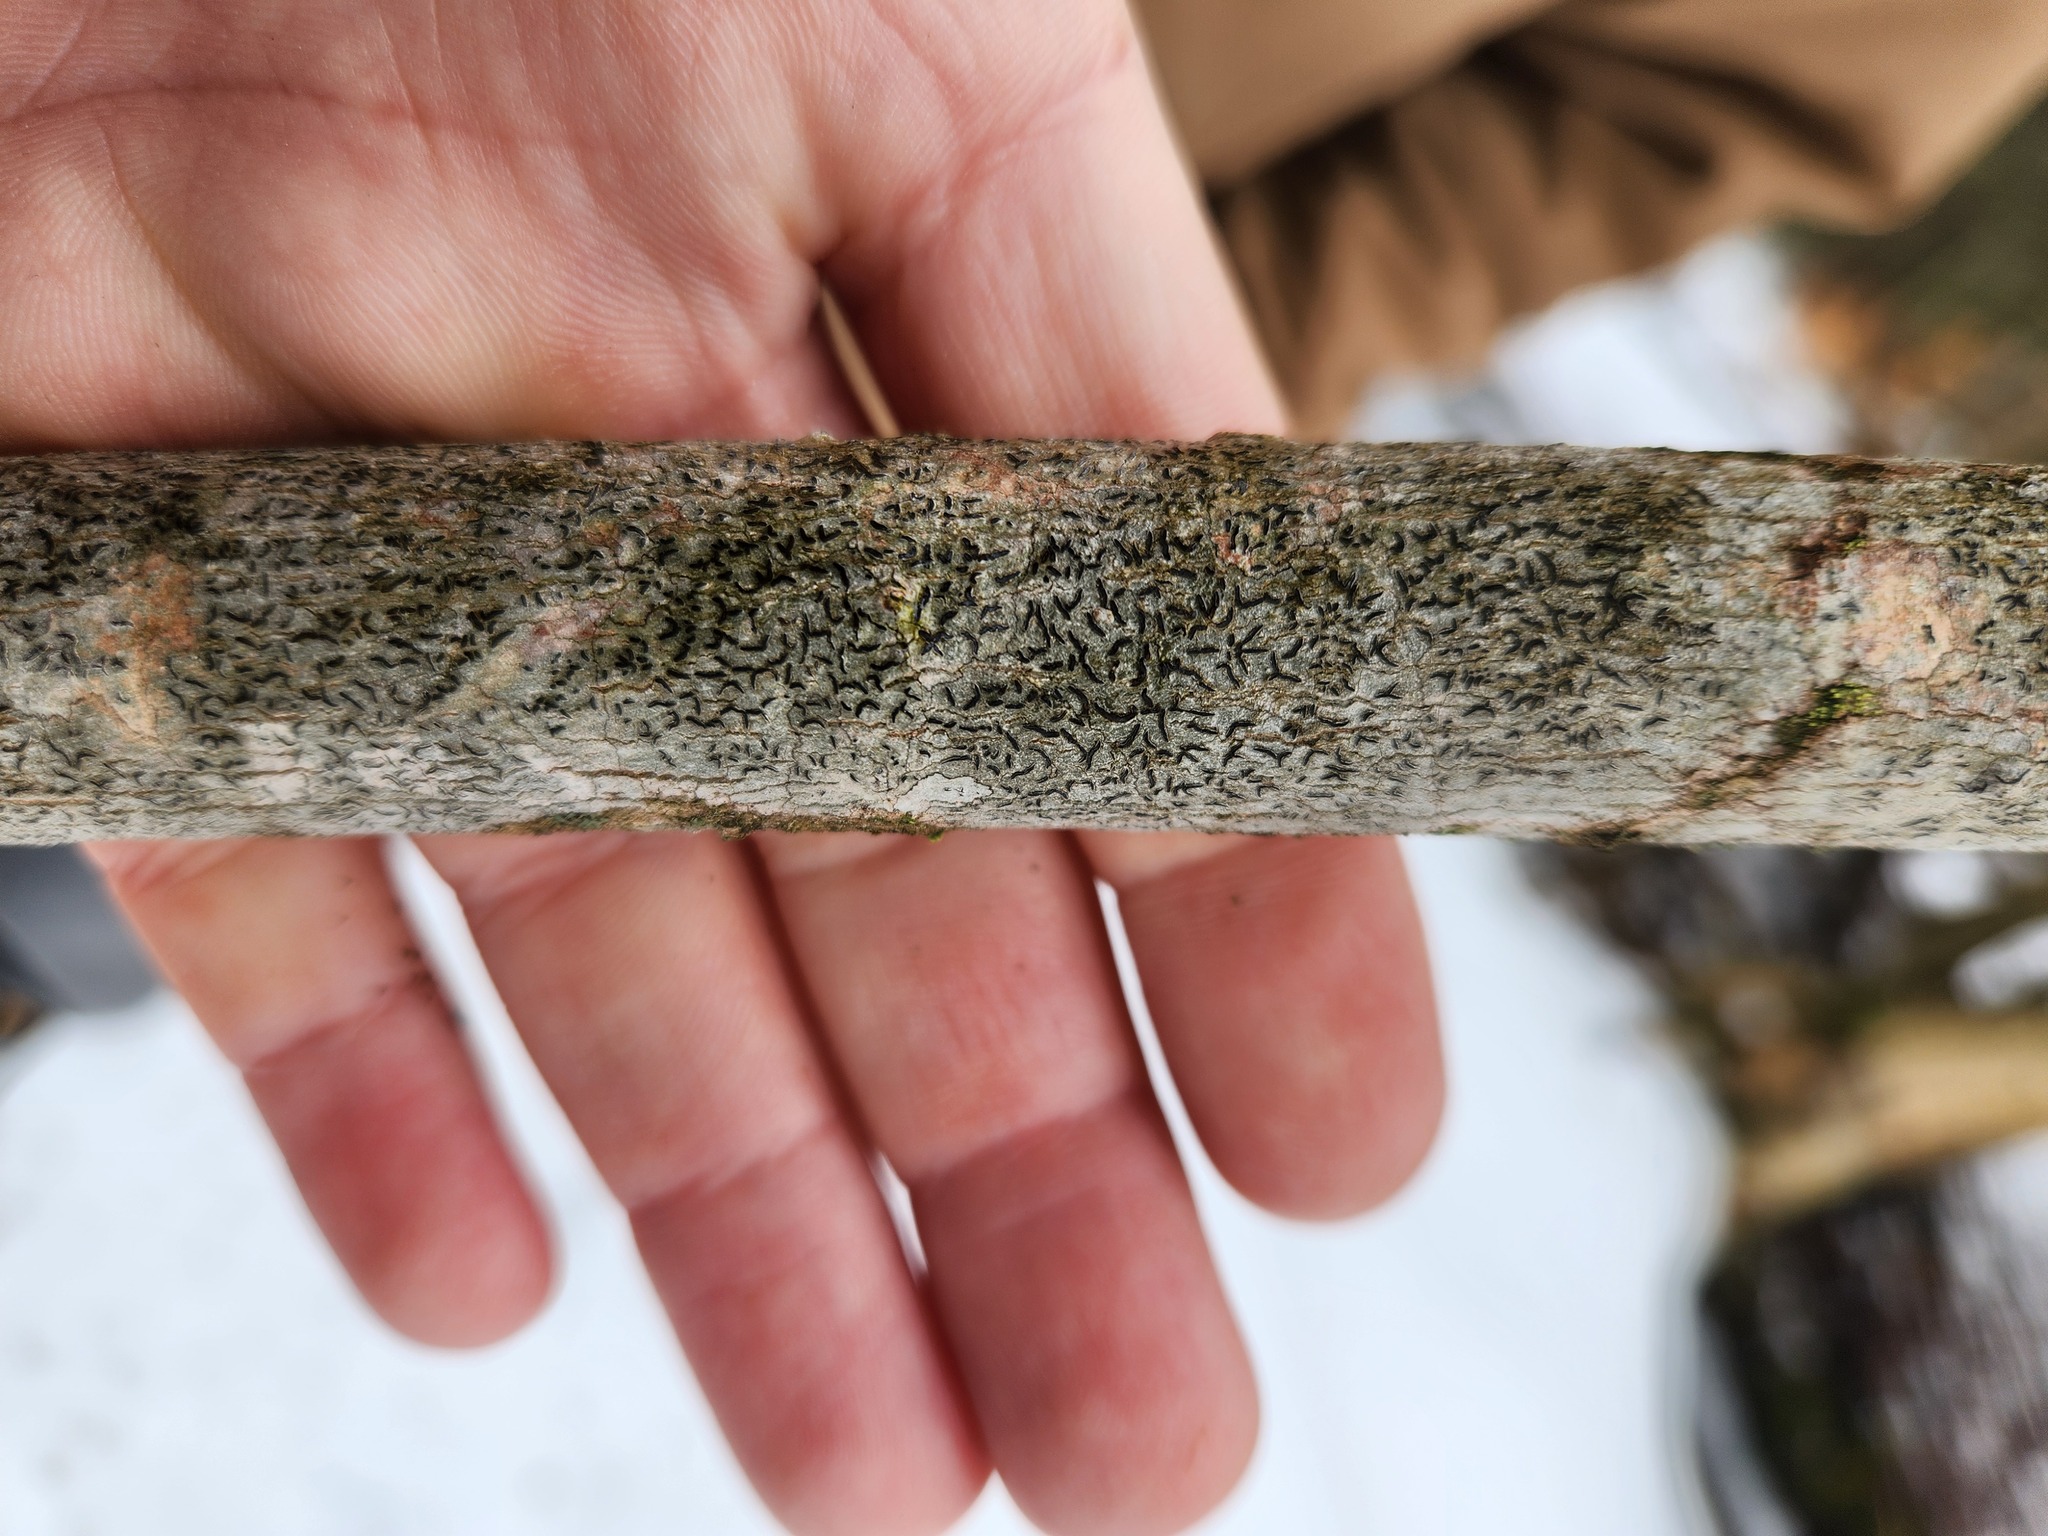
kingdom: Fungi
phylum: Ascomycota
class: Lecanoromycetes
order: Ostropales
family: Graphidaceae
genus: Graphis
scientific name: Graphis scripta
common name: Script lichen
